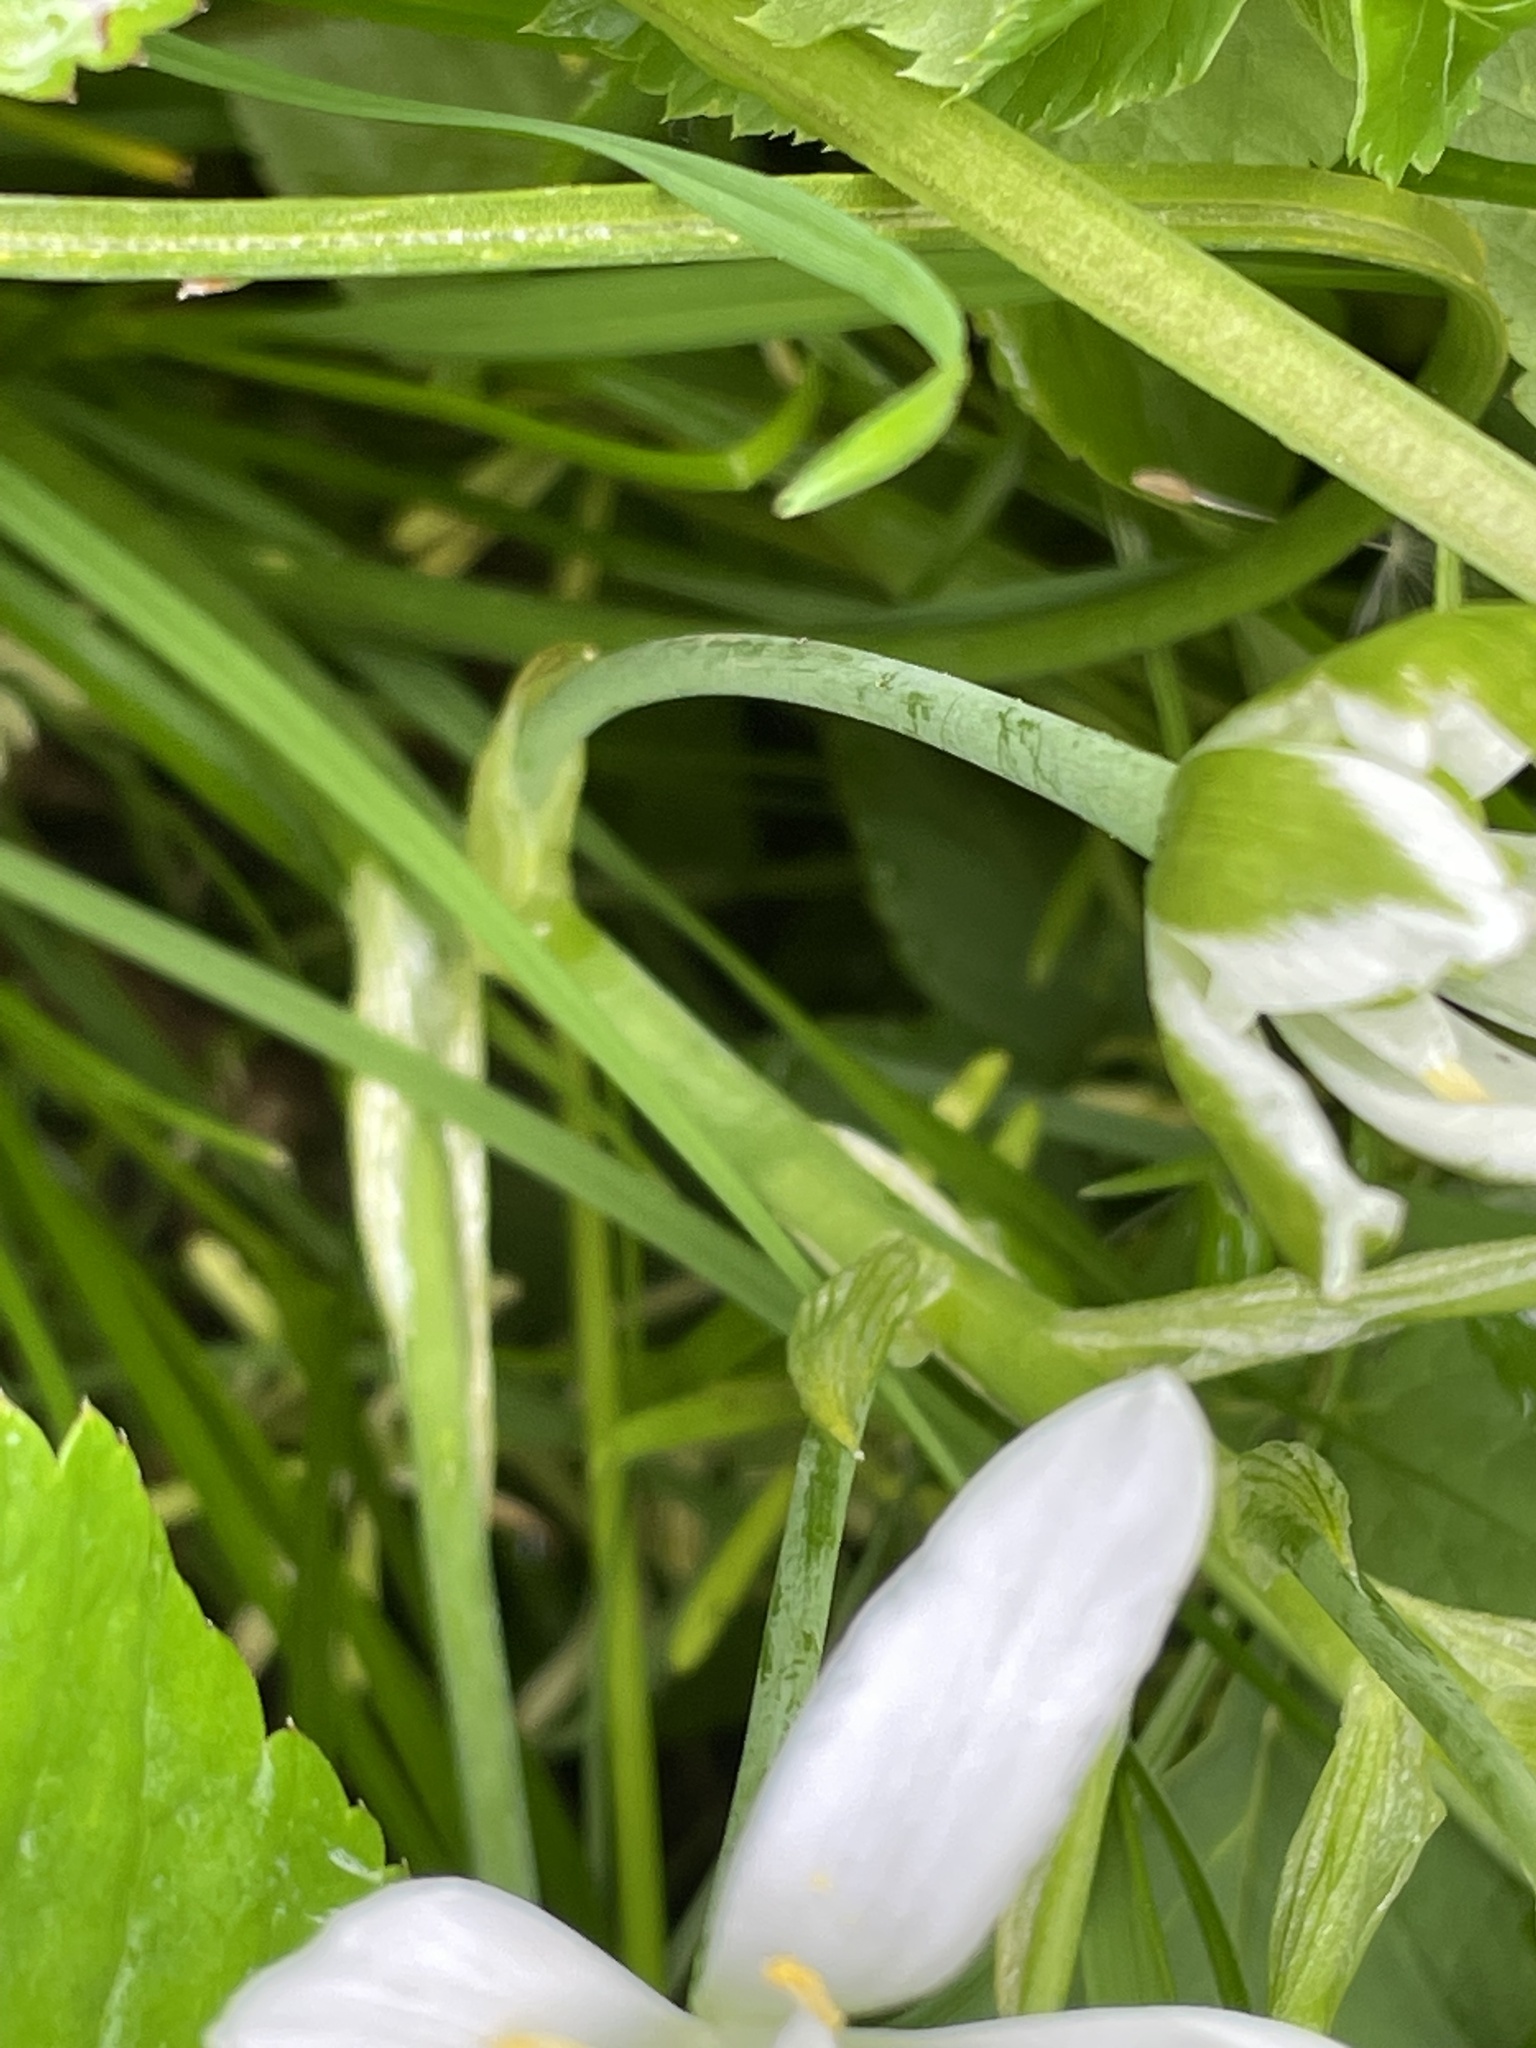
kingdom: Plantae
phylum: Tracheophyta
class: Liliopsida
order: Asparagales
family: Asparagaceae
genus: Ornithogalum
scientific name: Ornithogalum umbellatum
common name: Garden star-of-bethlehem
